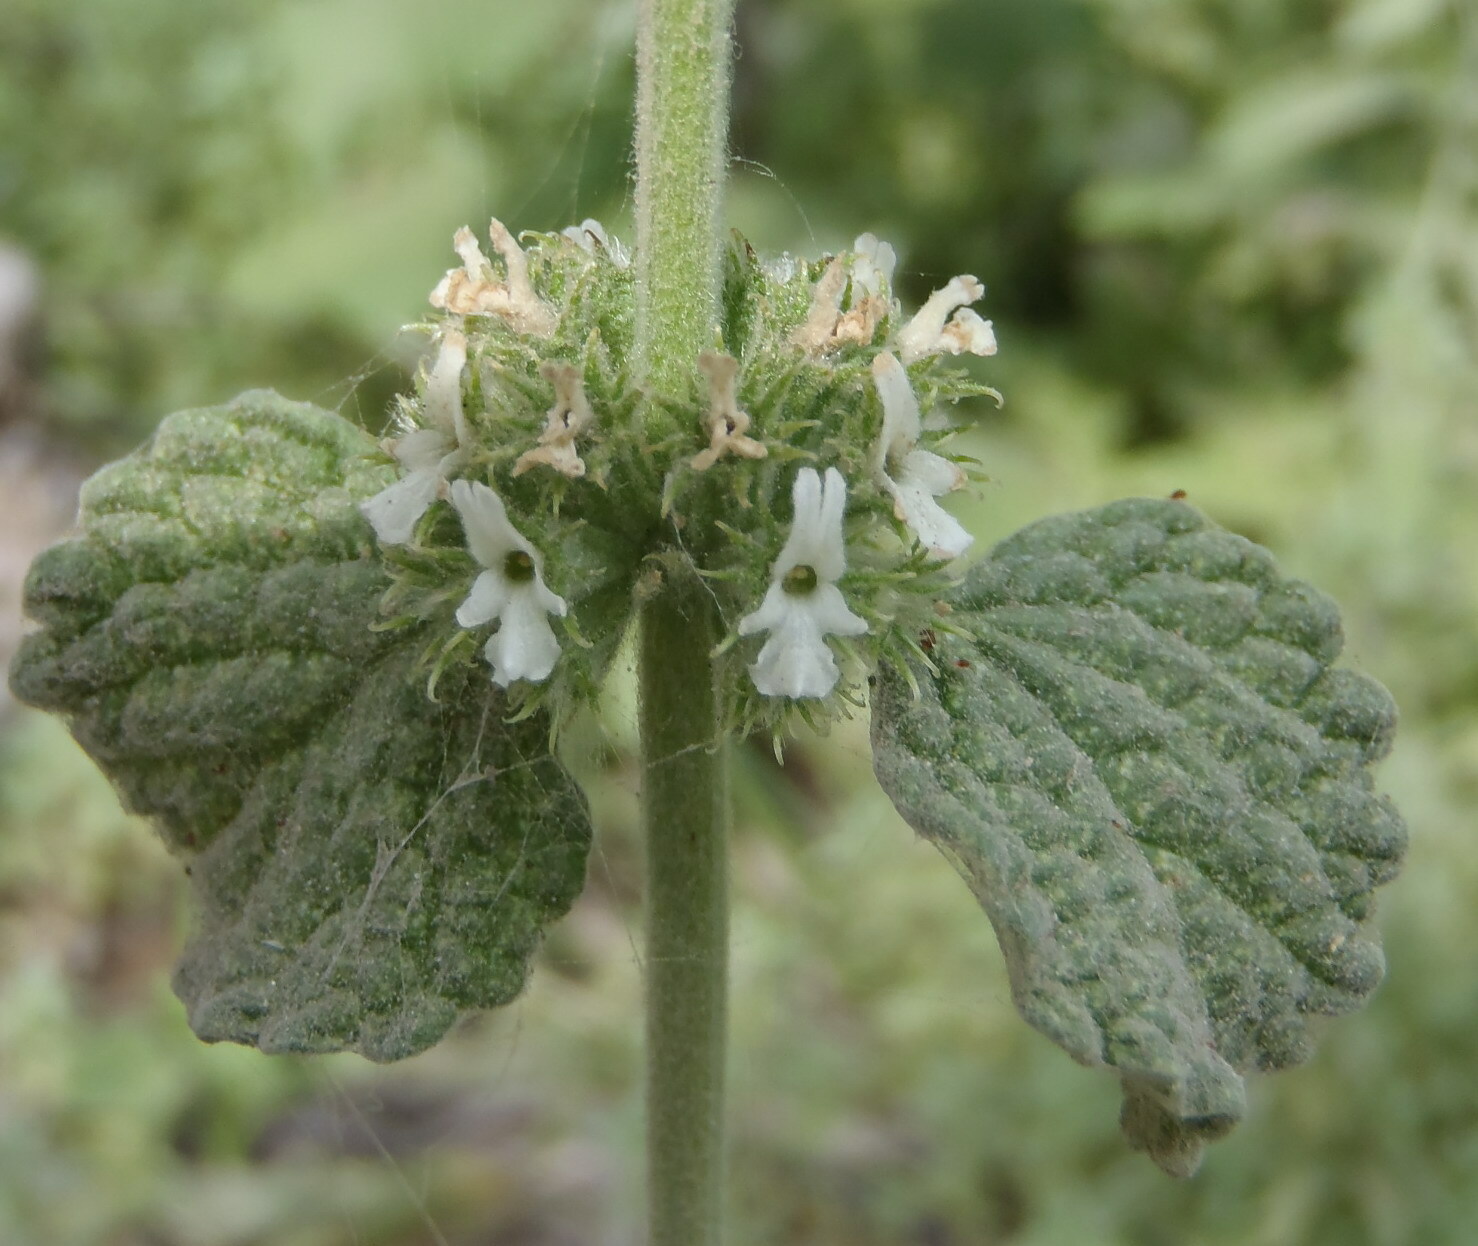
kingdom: Plantae
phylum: Tracheophyta
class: Magnoliopsida
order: Lamiales
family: Lamiaceae
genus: Marrubium
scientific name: Marrubium vulgare
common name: Horehound
